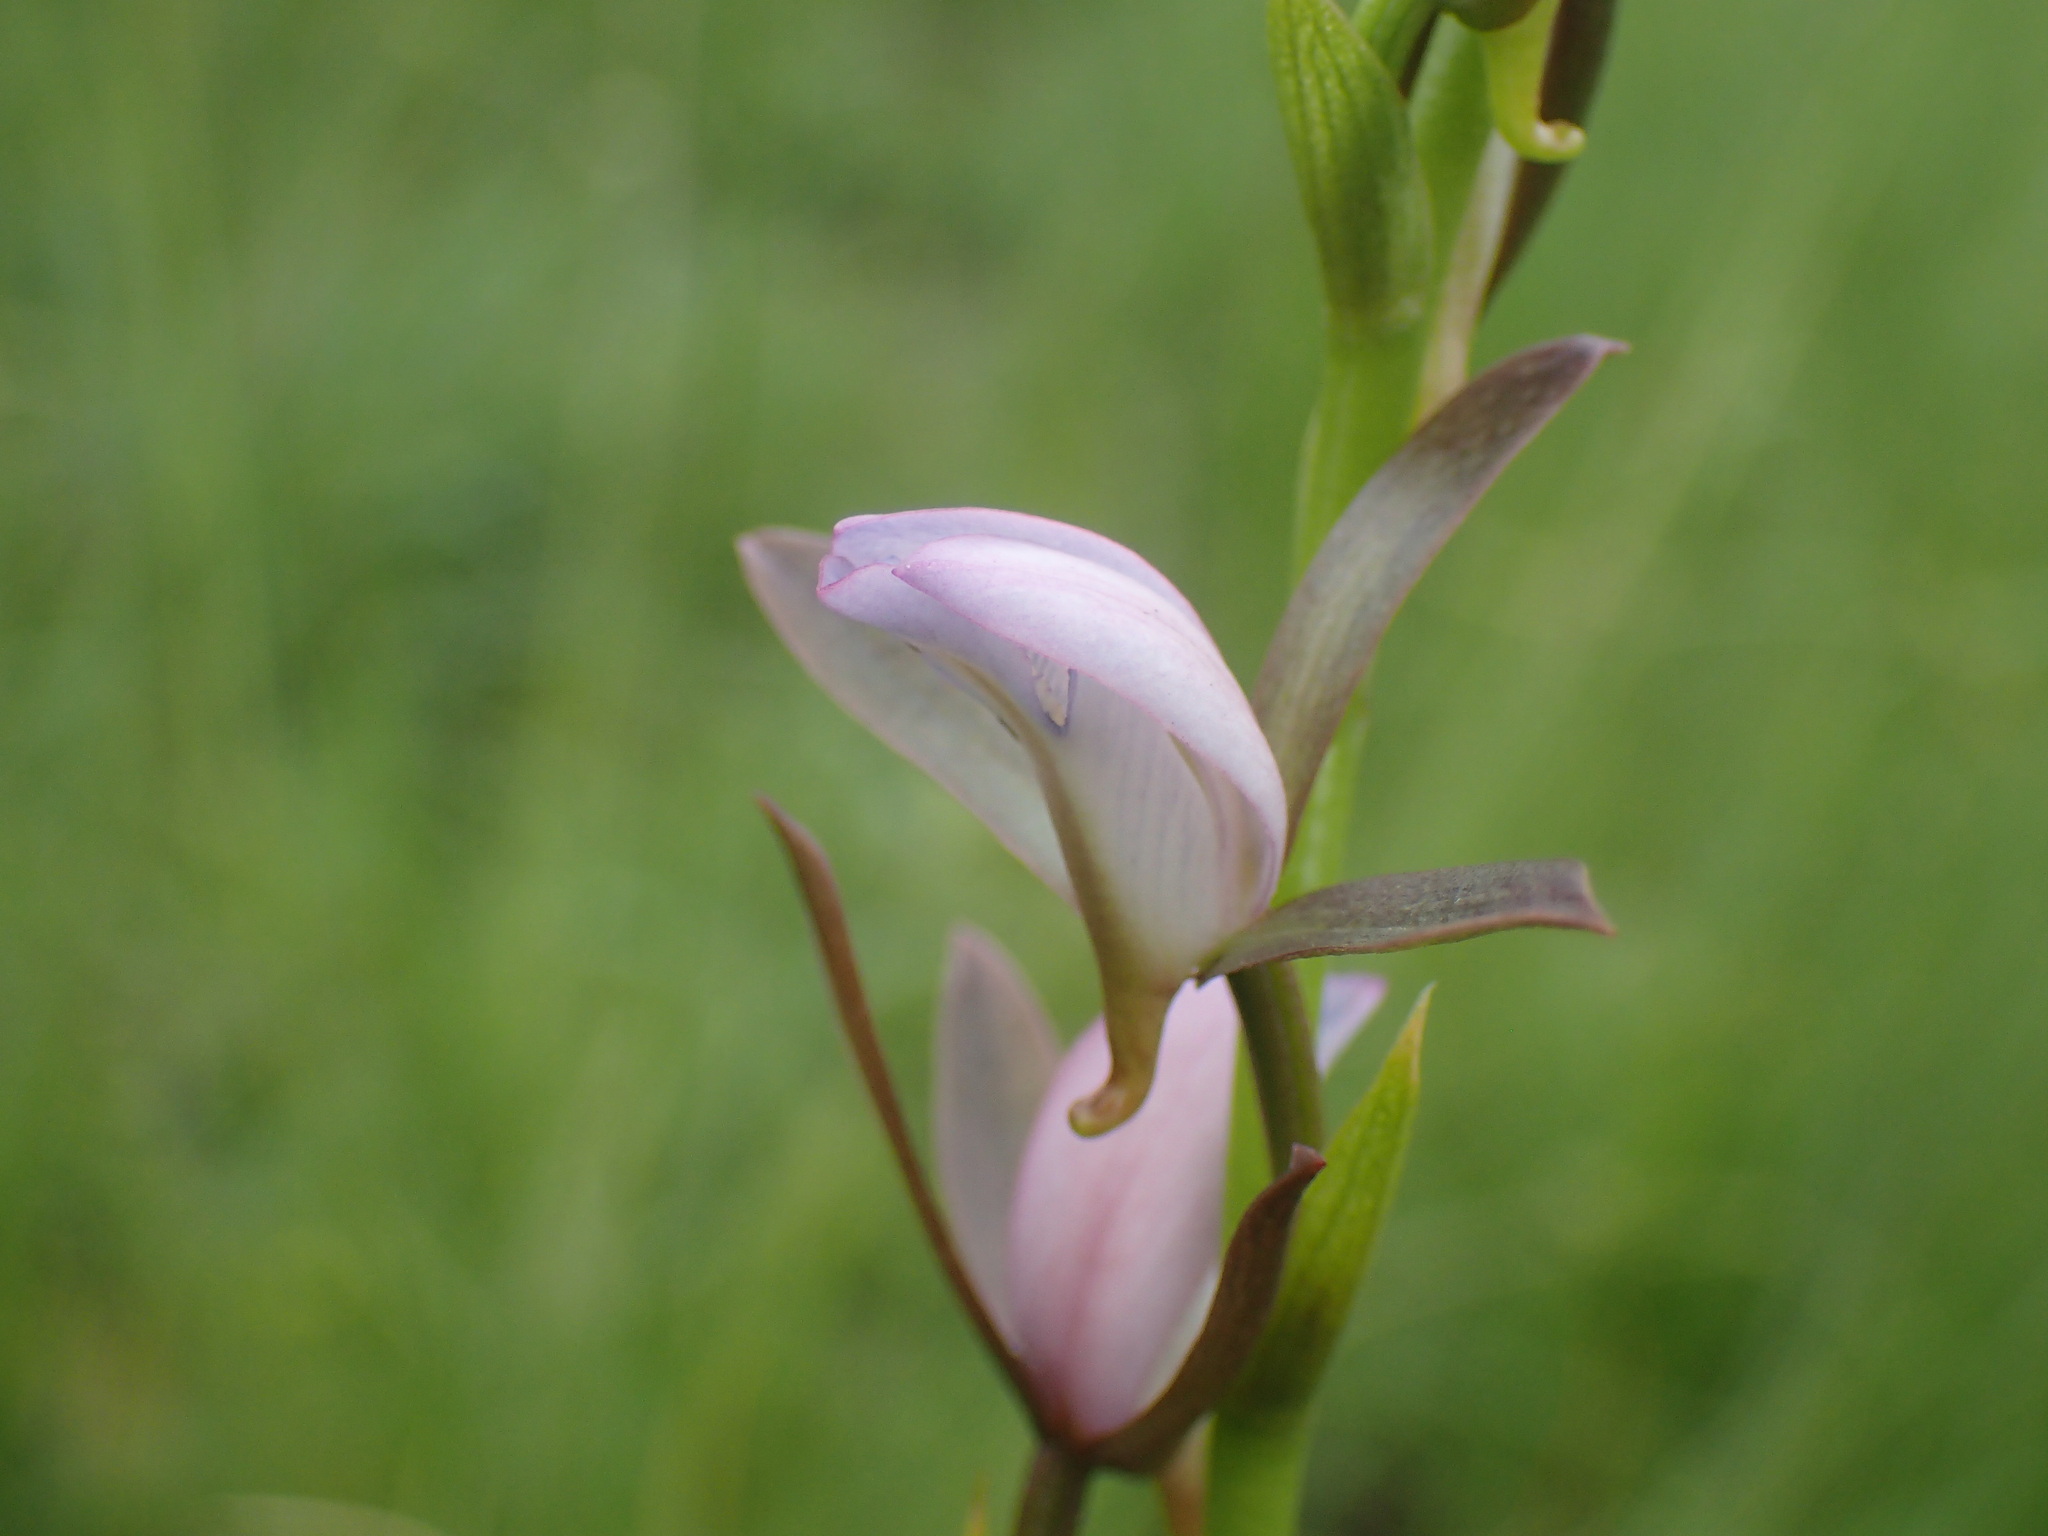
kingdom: Plantae
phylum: Tracheophyta
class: Liliopsida
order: Asparagales
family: Orchidaceae
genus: Eulophia
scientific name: Eulophia hians
